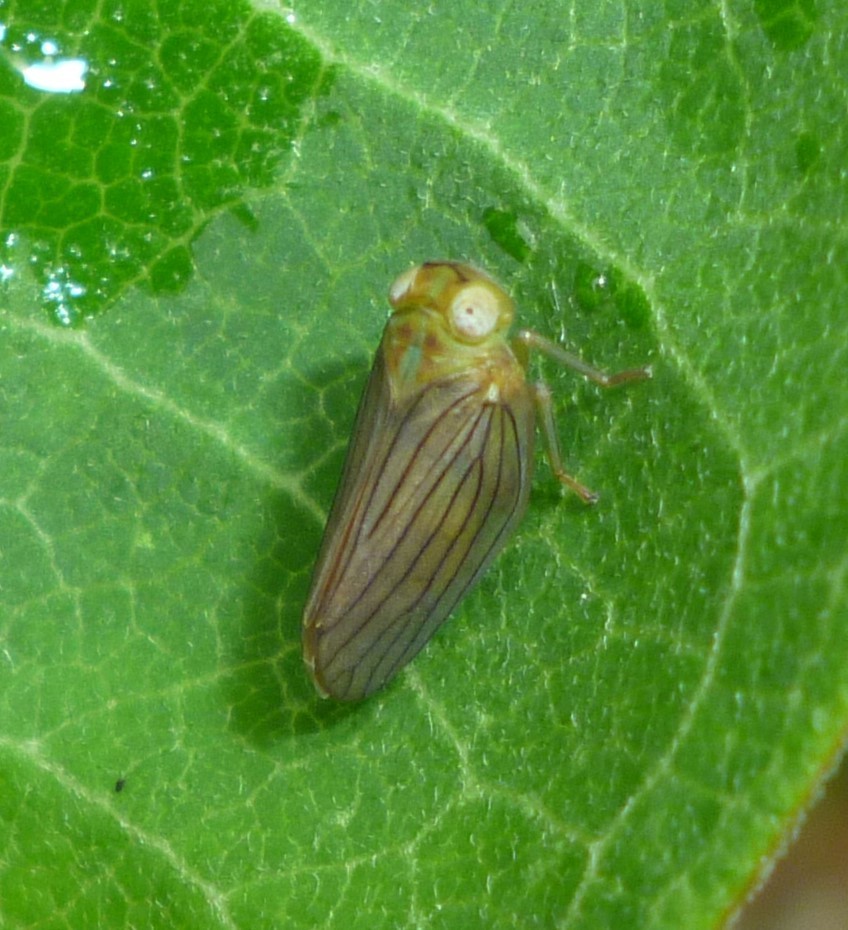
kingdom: Animalia
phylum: Arthropoda
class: Insecta
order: Hemiptera
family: Issidae
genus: Aplos
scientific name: Aplos simplex
